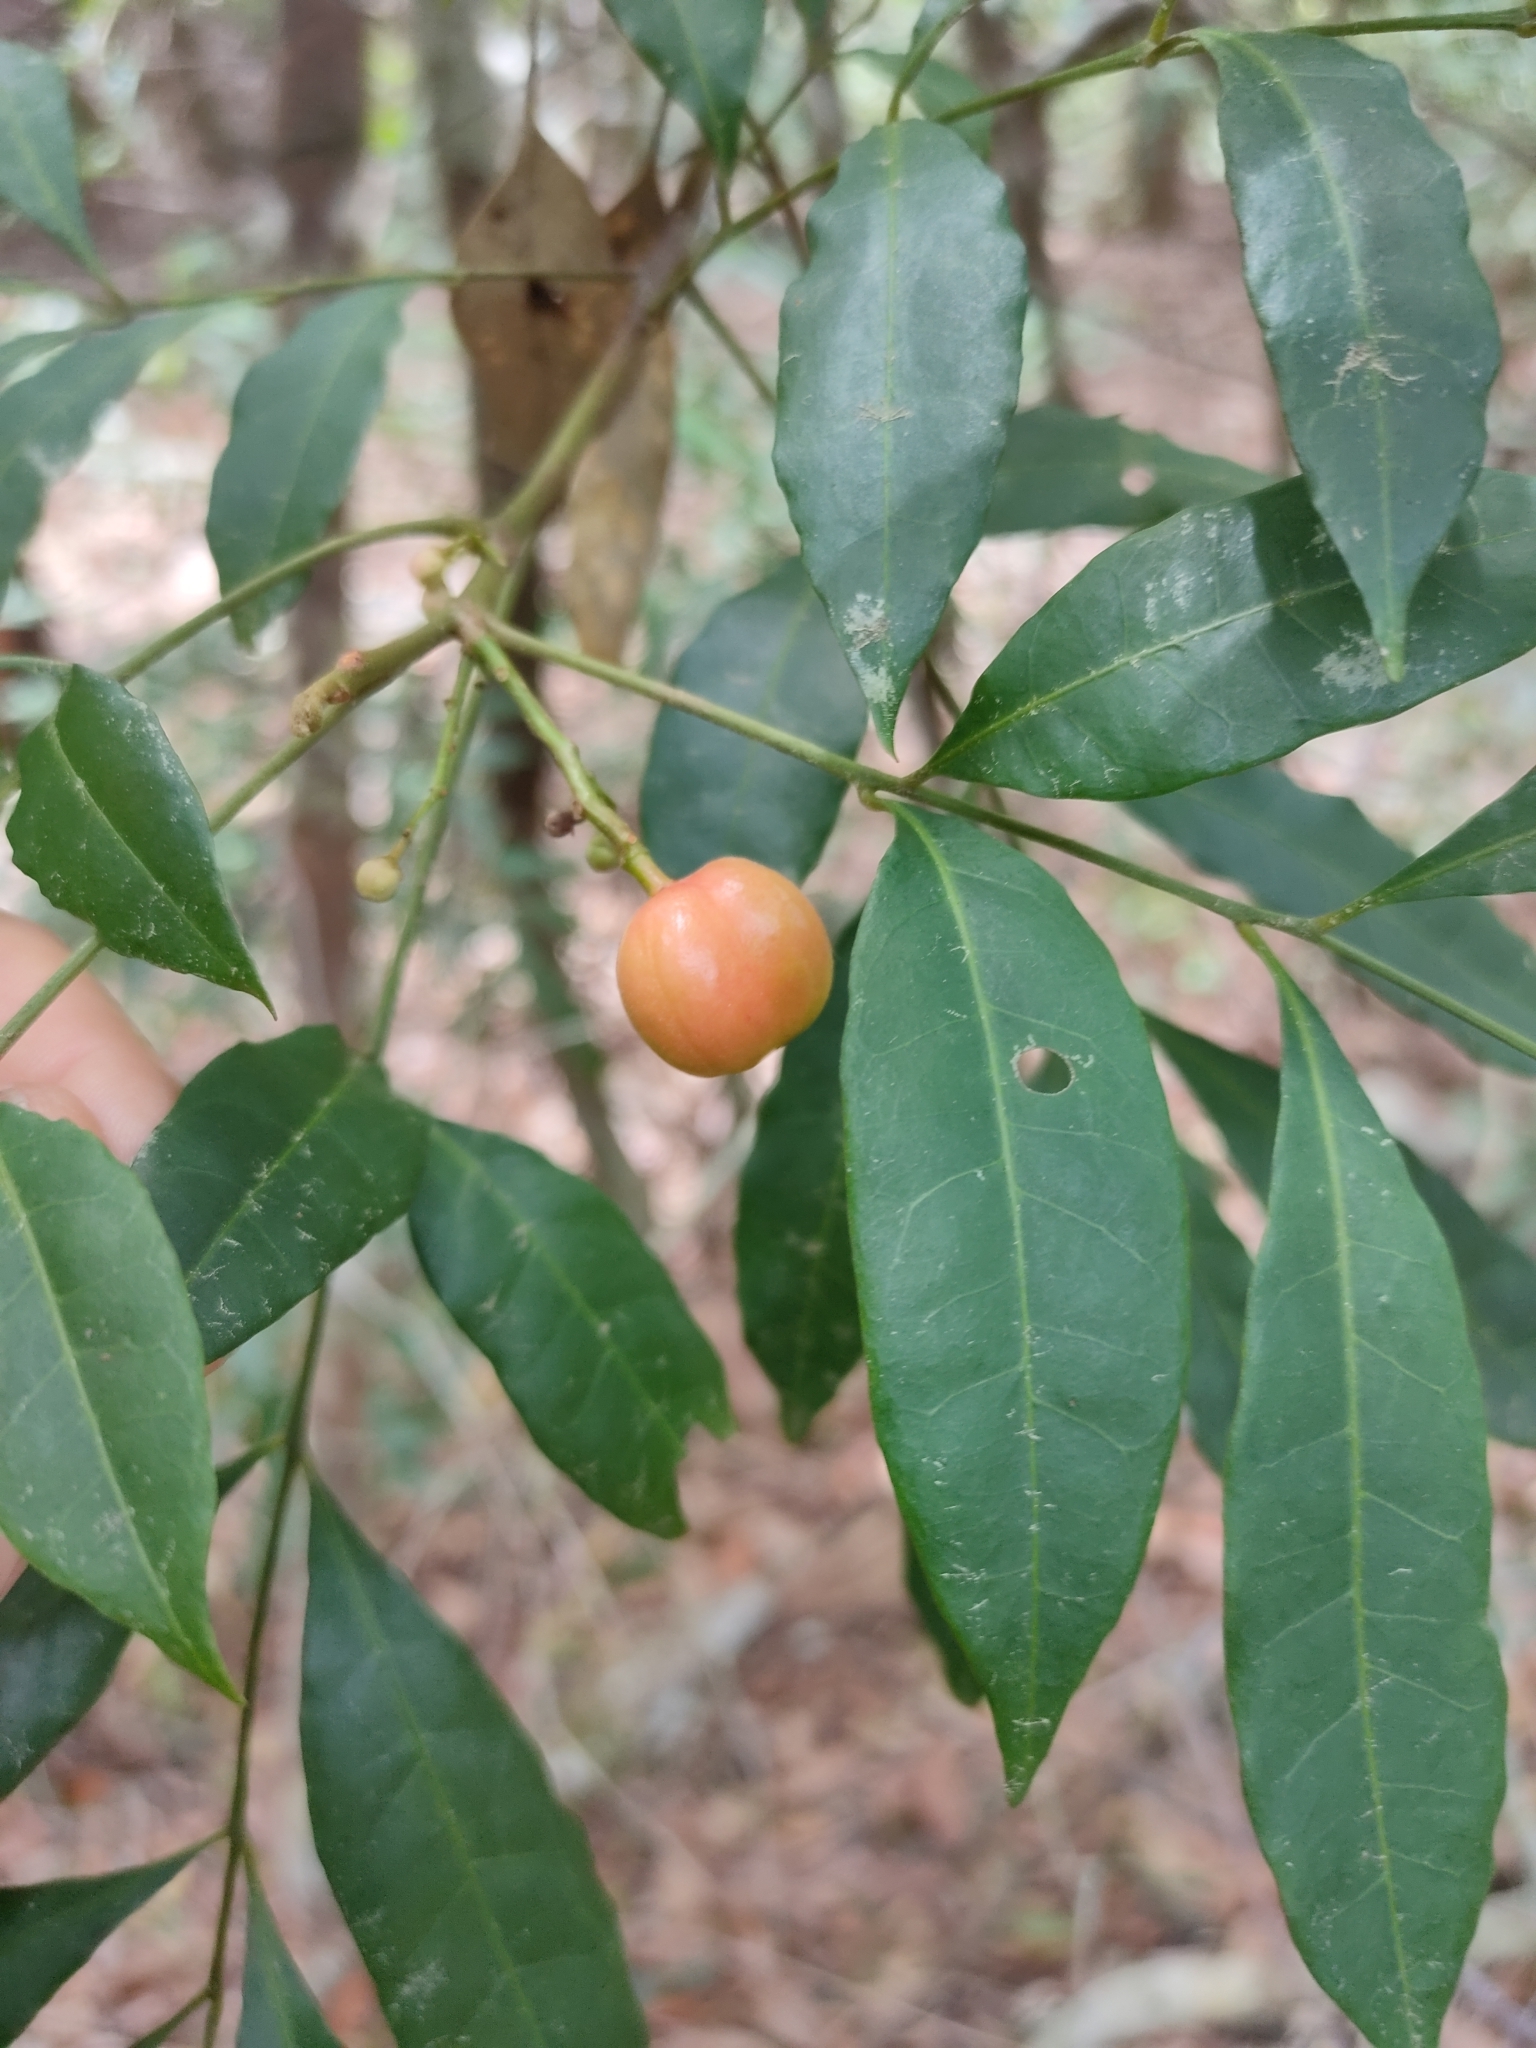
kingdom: Plantae
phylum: Tracheophyta
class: Magnoliopsida
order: Sapindales
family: Meliaceae
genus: Synoum
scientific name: Synoum glandulosum
